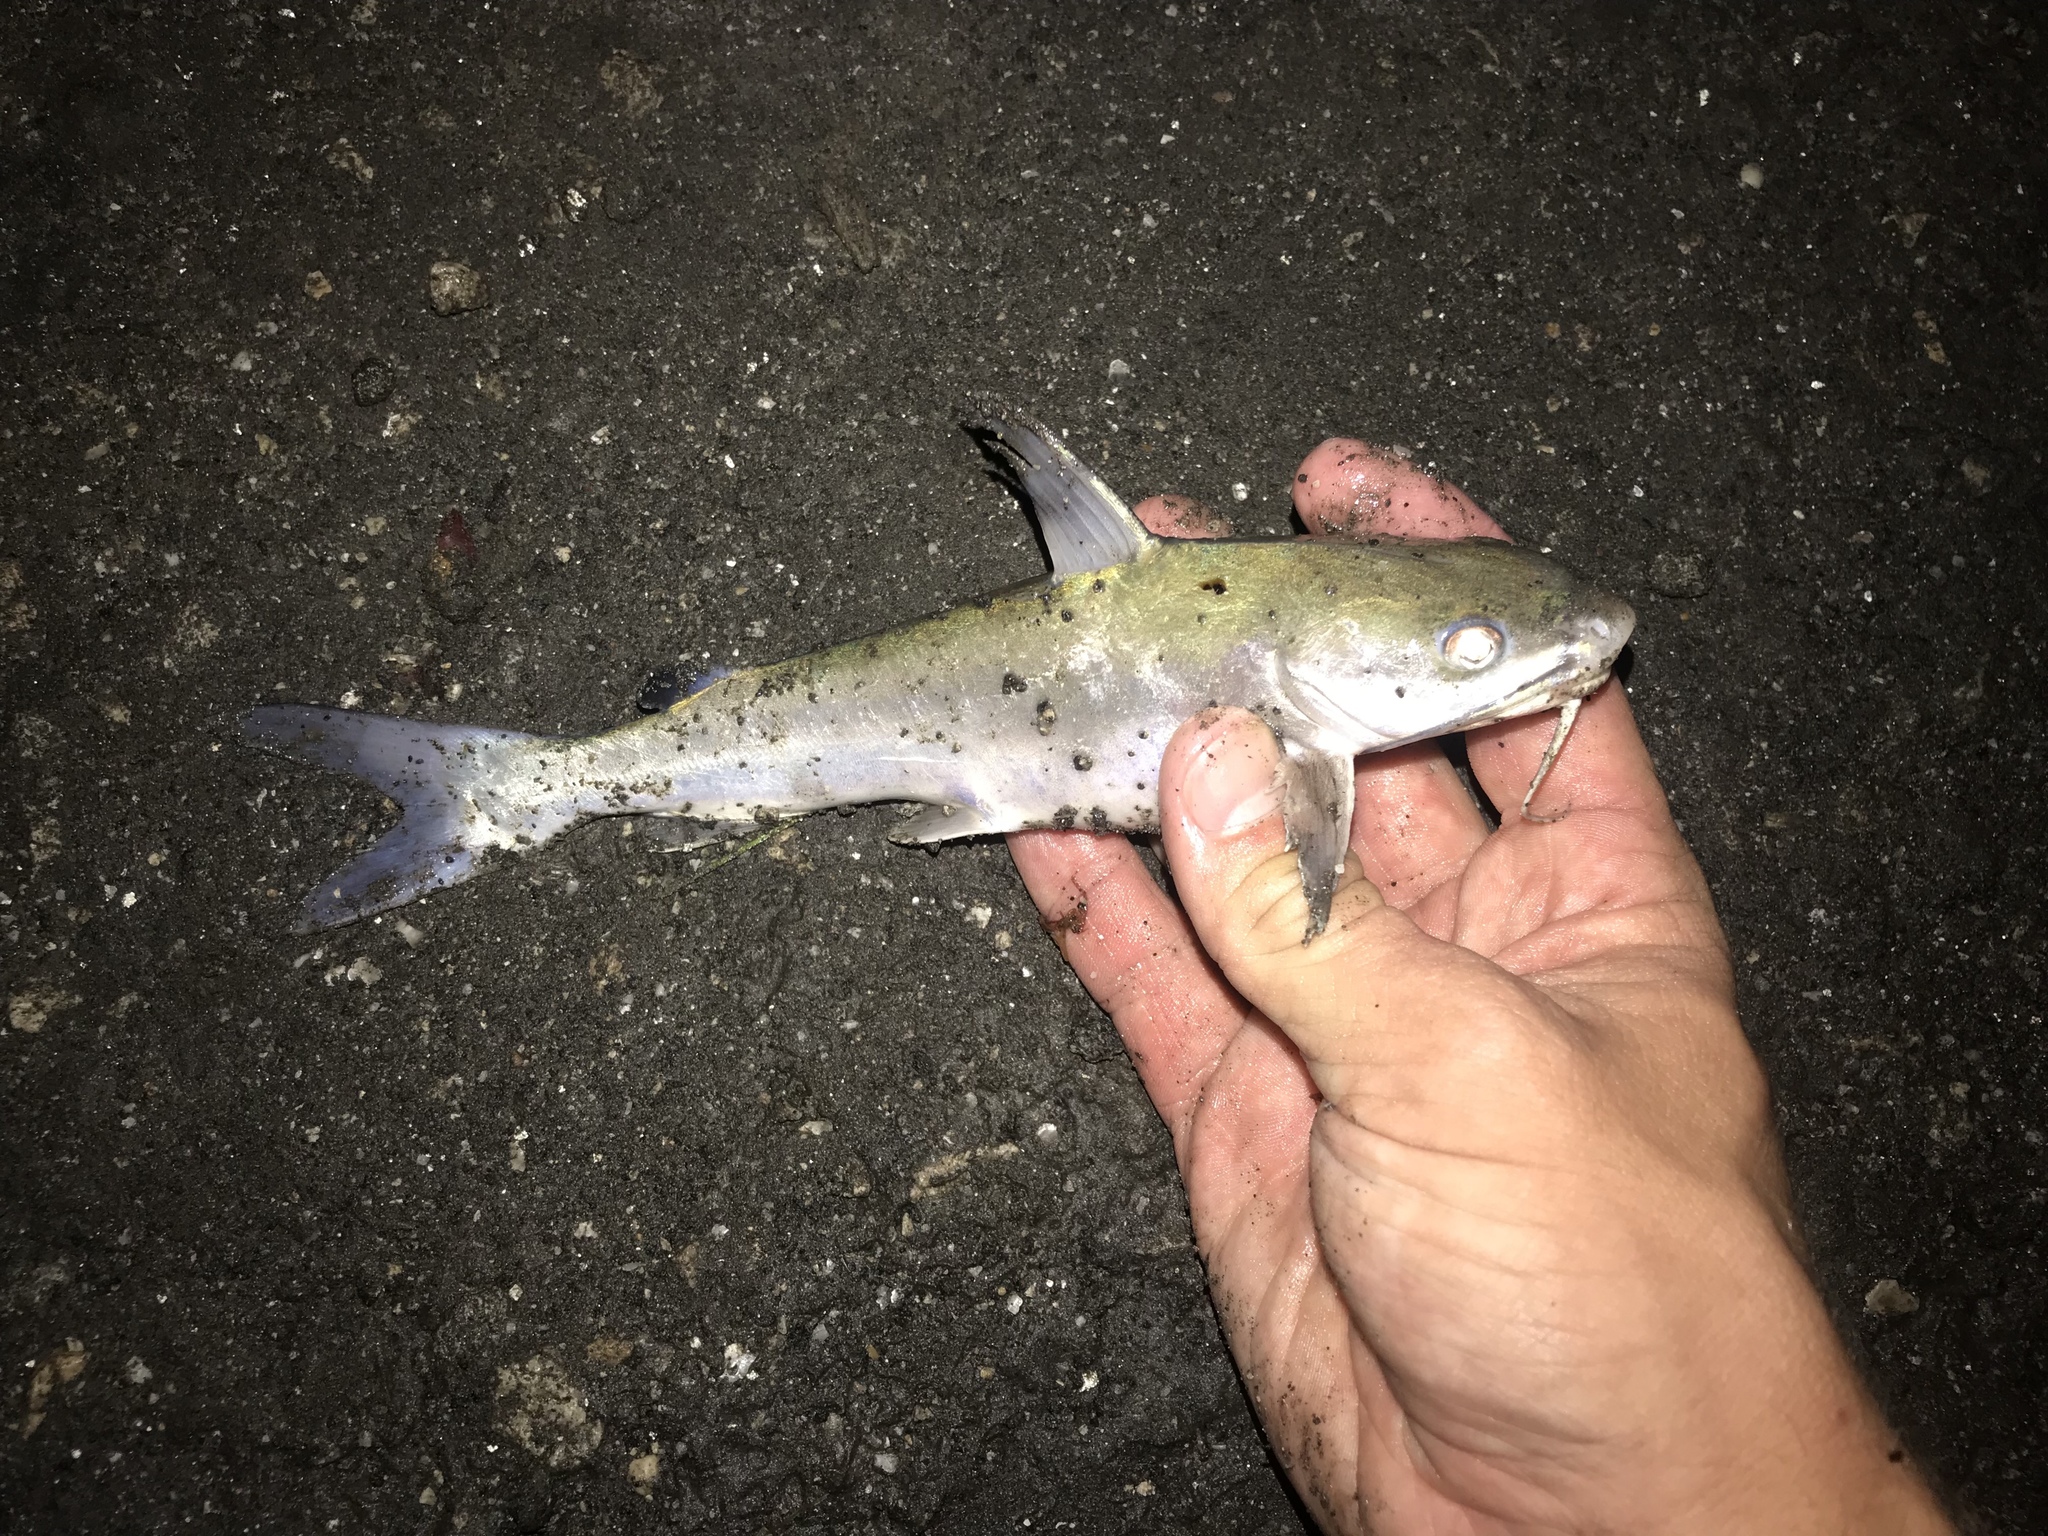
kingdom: Animalia
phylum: Chordata
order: Siluriformes
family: Ariidae
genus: Ariopsis
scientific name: Ariopsis felis
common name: Hardhead catfish
